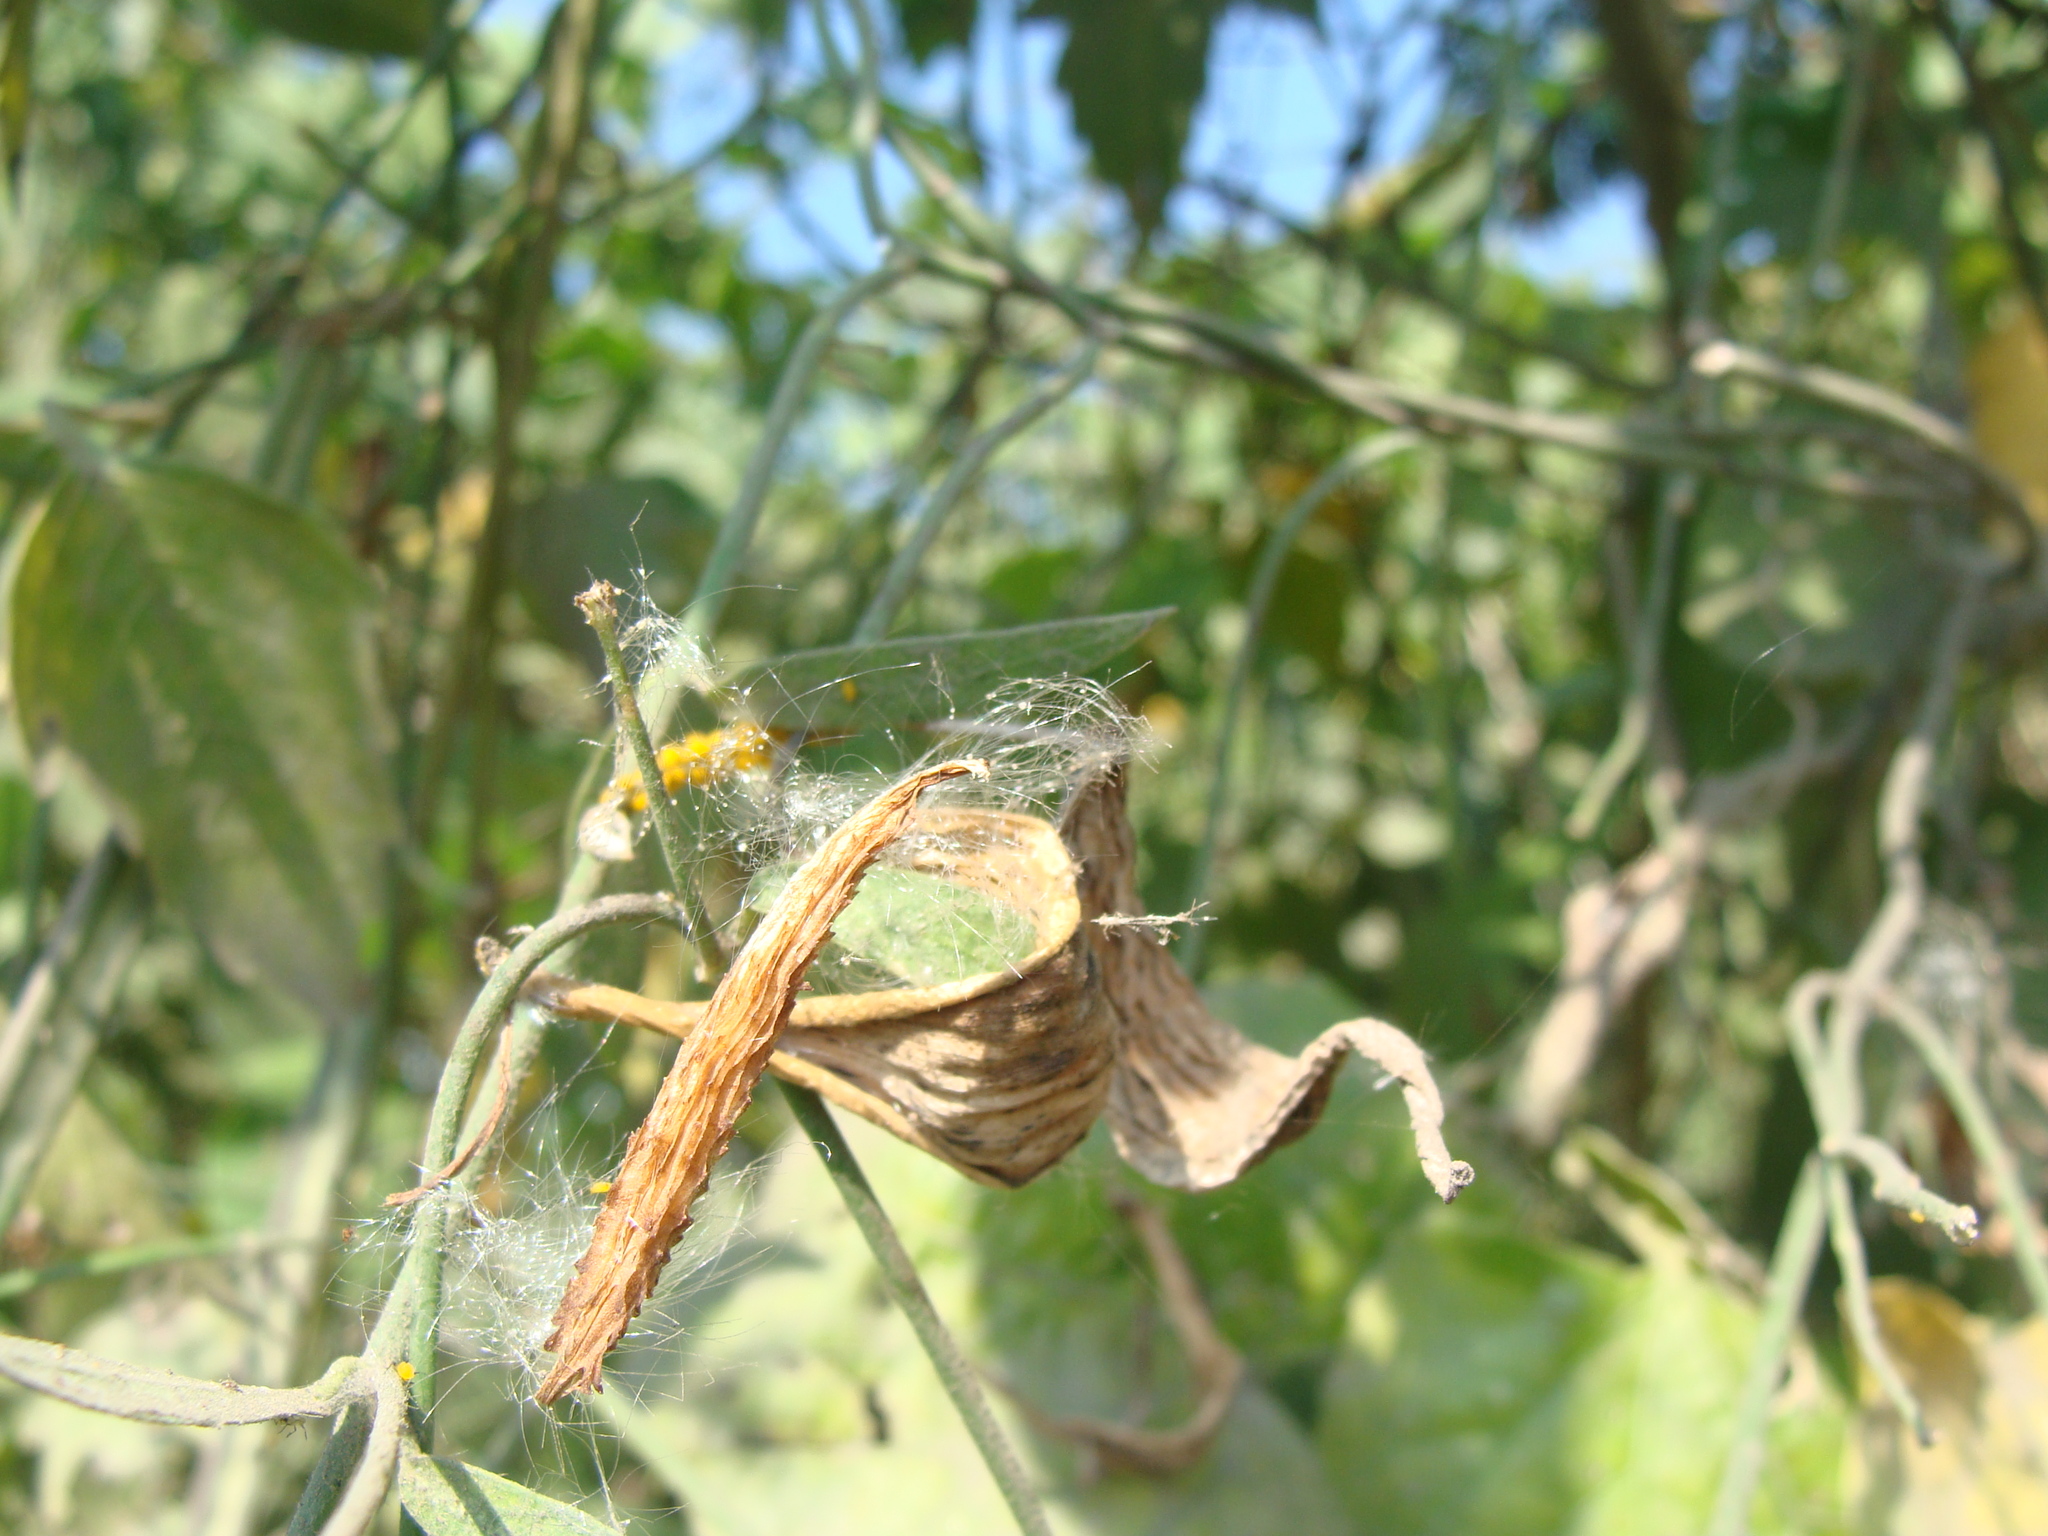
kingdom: Plantae
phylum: Tracheophyta
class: Magnoliopsida
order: Gentianales
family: Apocynaceae
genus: Funastrum
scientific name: Funastrum clausum
